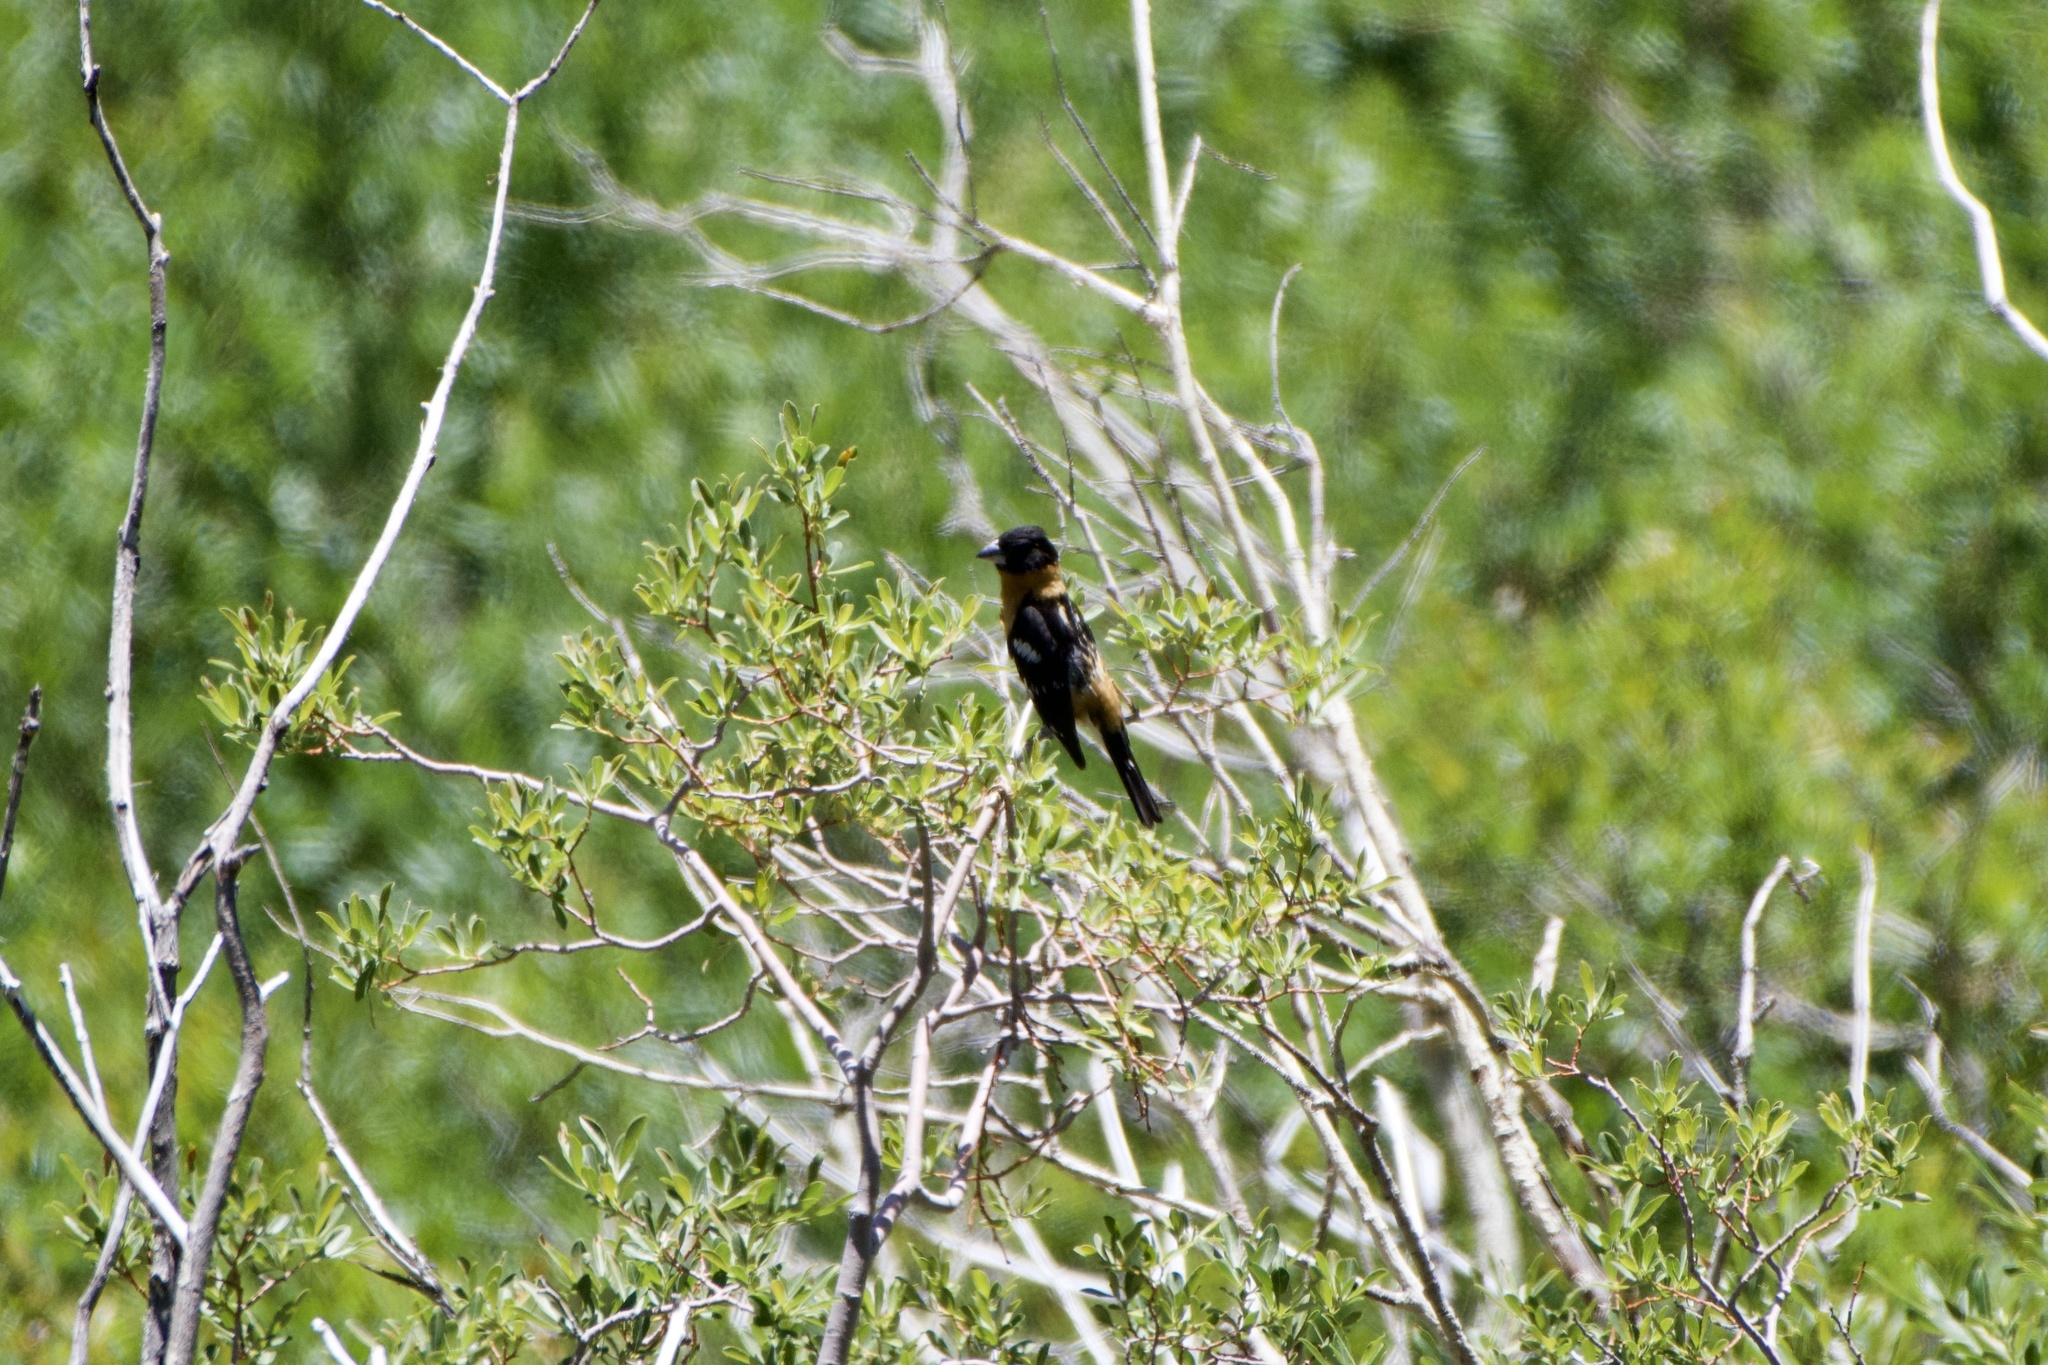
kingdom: Animalia
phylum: Chordata
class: Aves
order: Passeriformes
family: Cardinalidae
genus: Pheucticus
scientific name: Pheucticus melanocephalus
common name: Black-headed grosbeak
